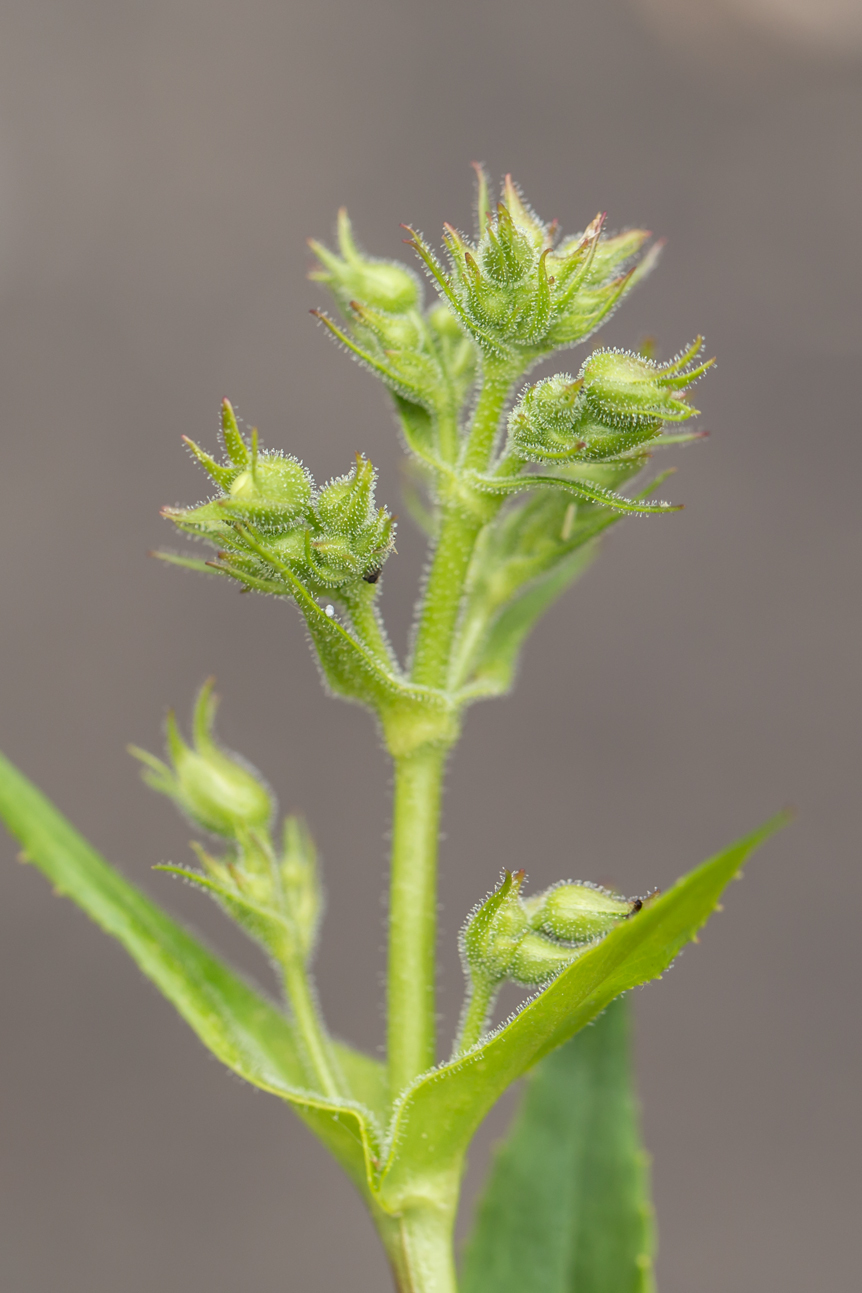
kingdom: Plantae
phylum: Tracheophyta
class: Magnoliopsida
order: Lamiales
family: Plantaginaceae
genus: Penstemon
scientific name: Penstemon digitalis
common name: Foxglove beardtongue
